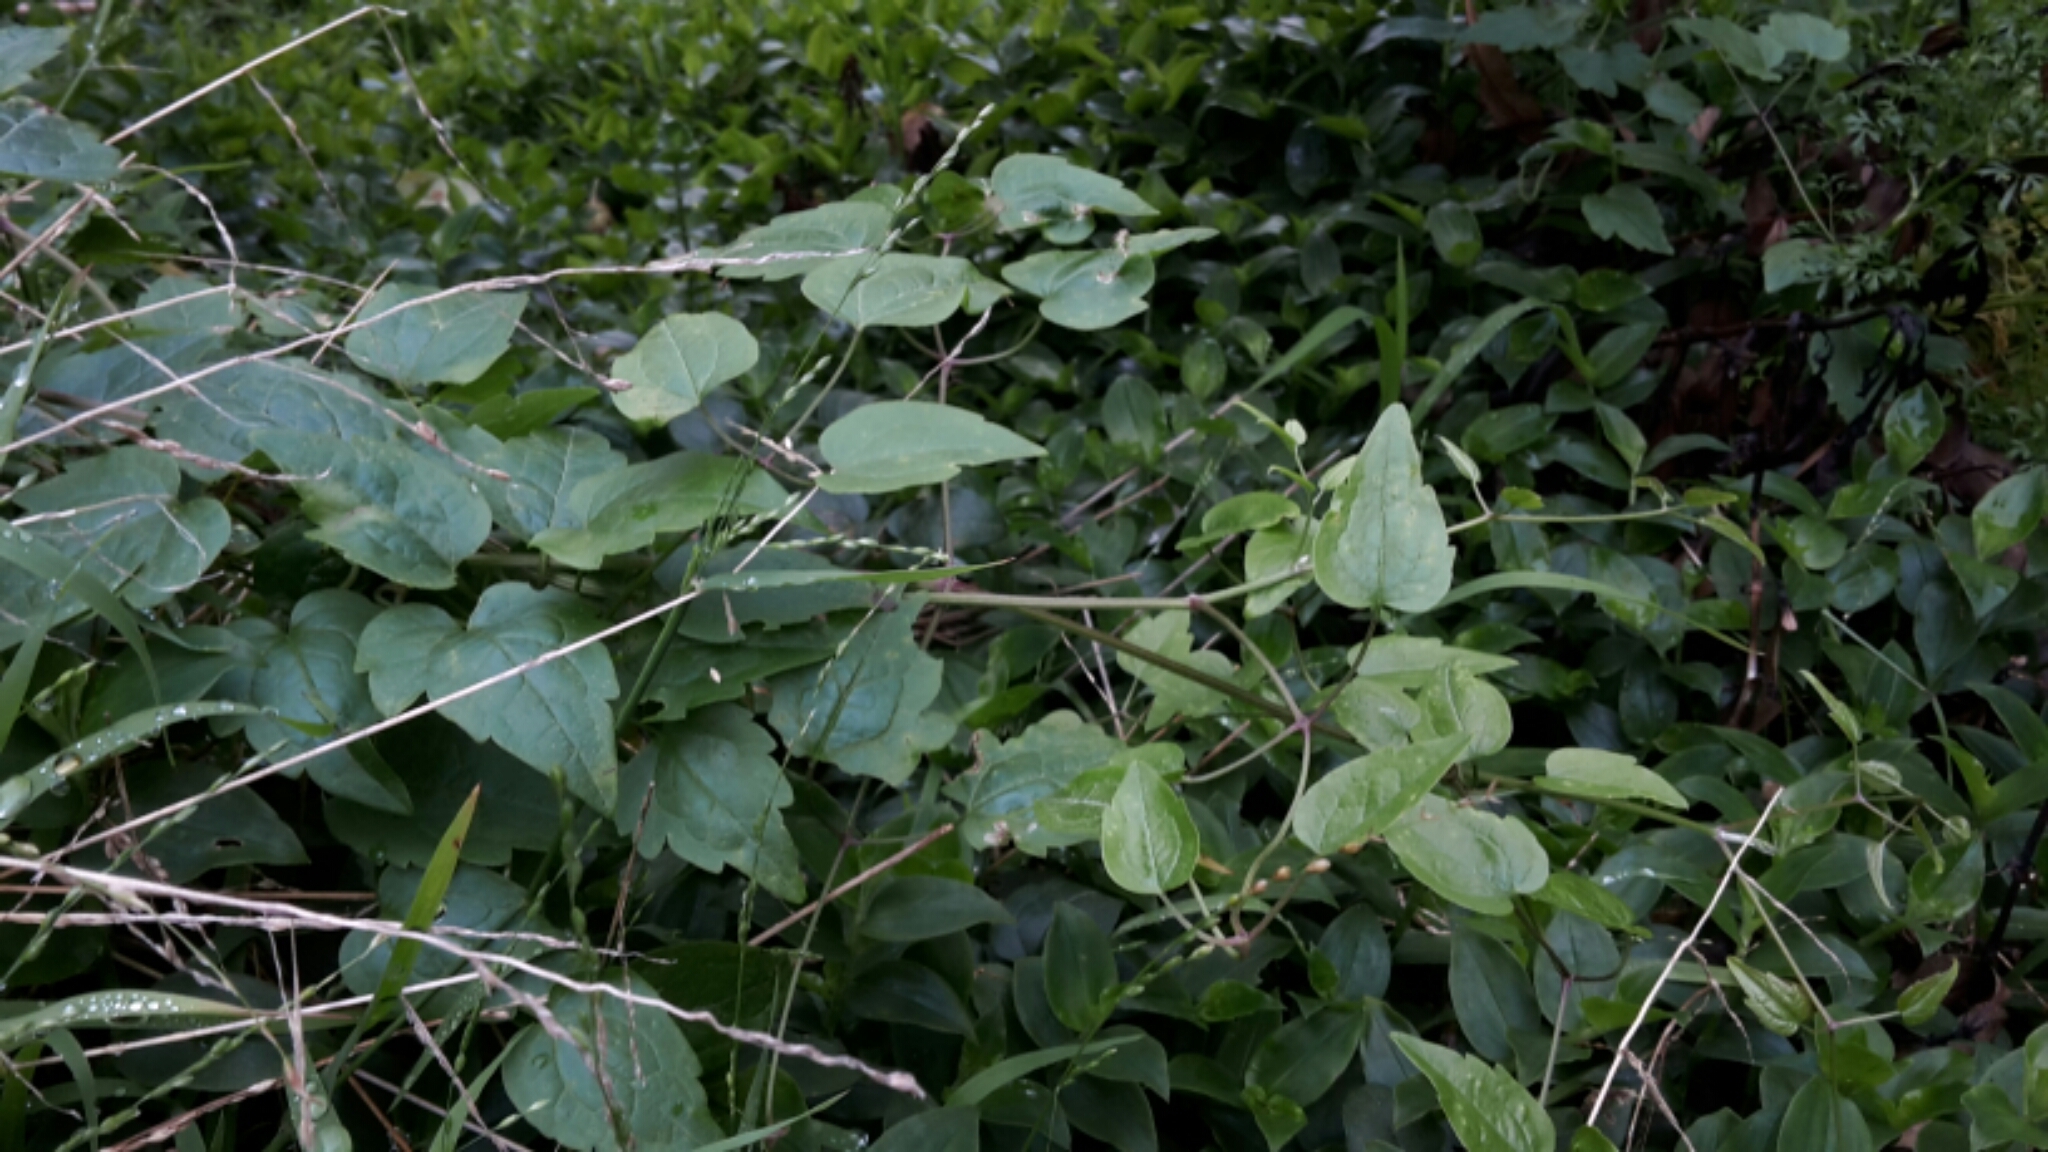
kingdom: Plantae
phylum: Tracheophyta
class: Magnoliopsida
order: Ranunculales
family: Ranunculaceae
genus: Clematis
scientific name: Clematis vitalba
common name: Evergreen clematis
